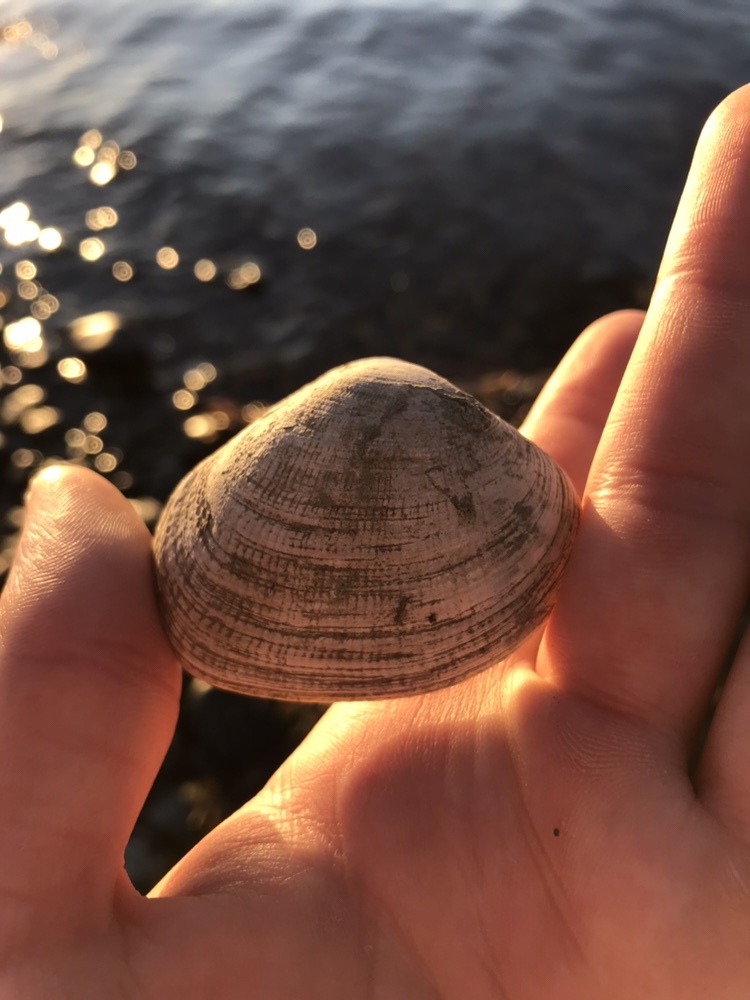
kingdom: Animalia
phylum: Mollusca
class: Bivalvia
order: Venerida
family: Veneridae
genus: Ruditapes
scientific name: Ruditapes philippinarum
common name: Manila clam
